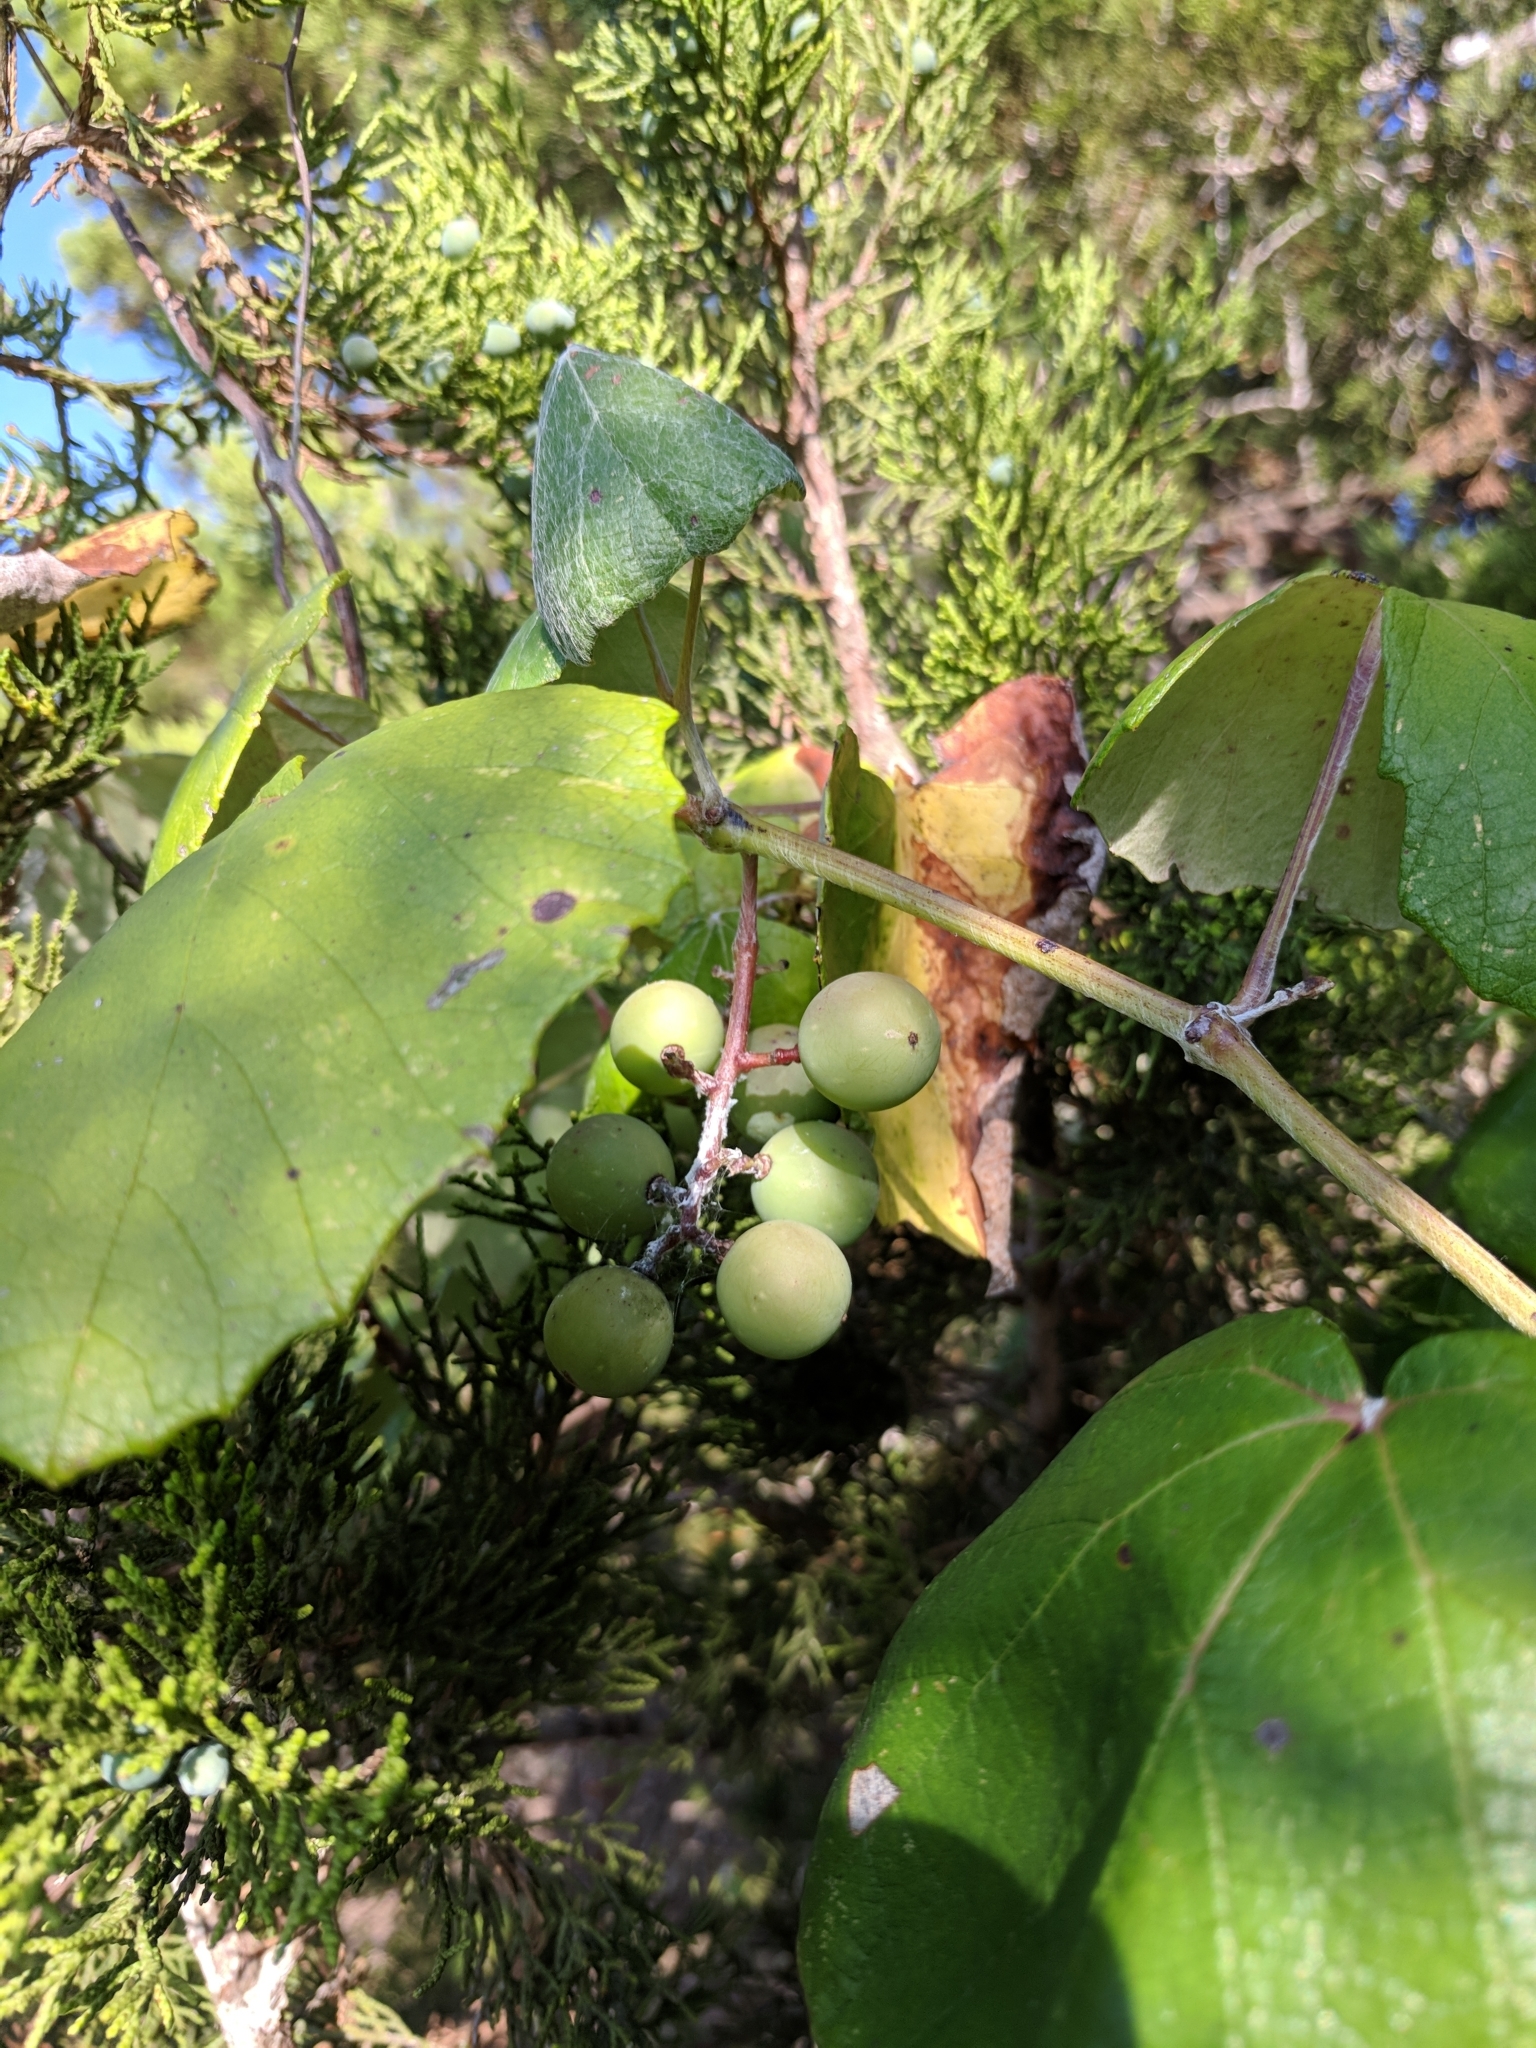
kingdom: Plantae
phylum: Tracheophyta
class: Magnoliopsida
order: Vitales
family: Vitaceae
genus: Vitis
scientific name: Vitis mustangensis
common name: Mustang grape
